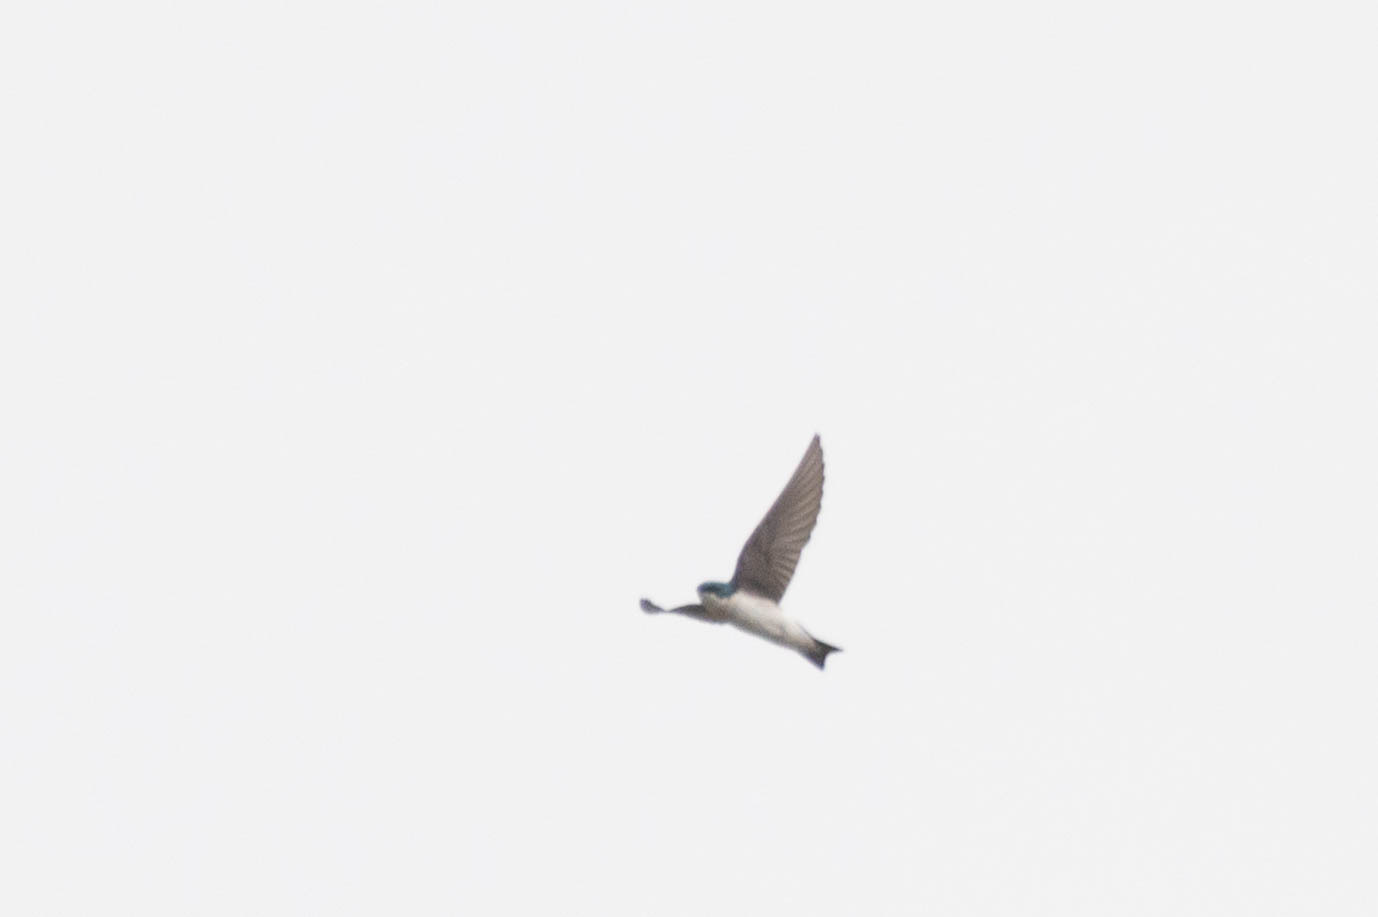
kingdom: Animalia
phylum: Chordata
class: Aves
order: Passeriformes
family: Hirundinidae
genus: Tachycineta
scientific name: Tachycineta bicolor
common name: Tree swallow
